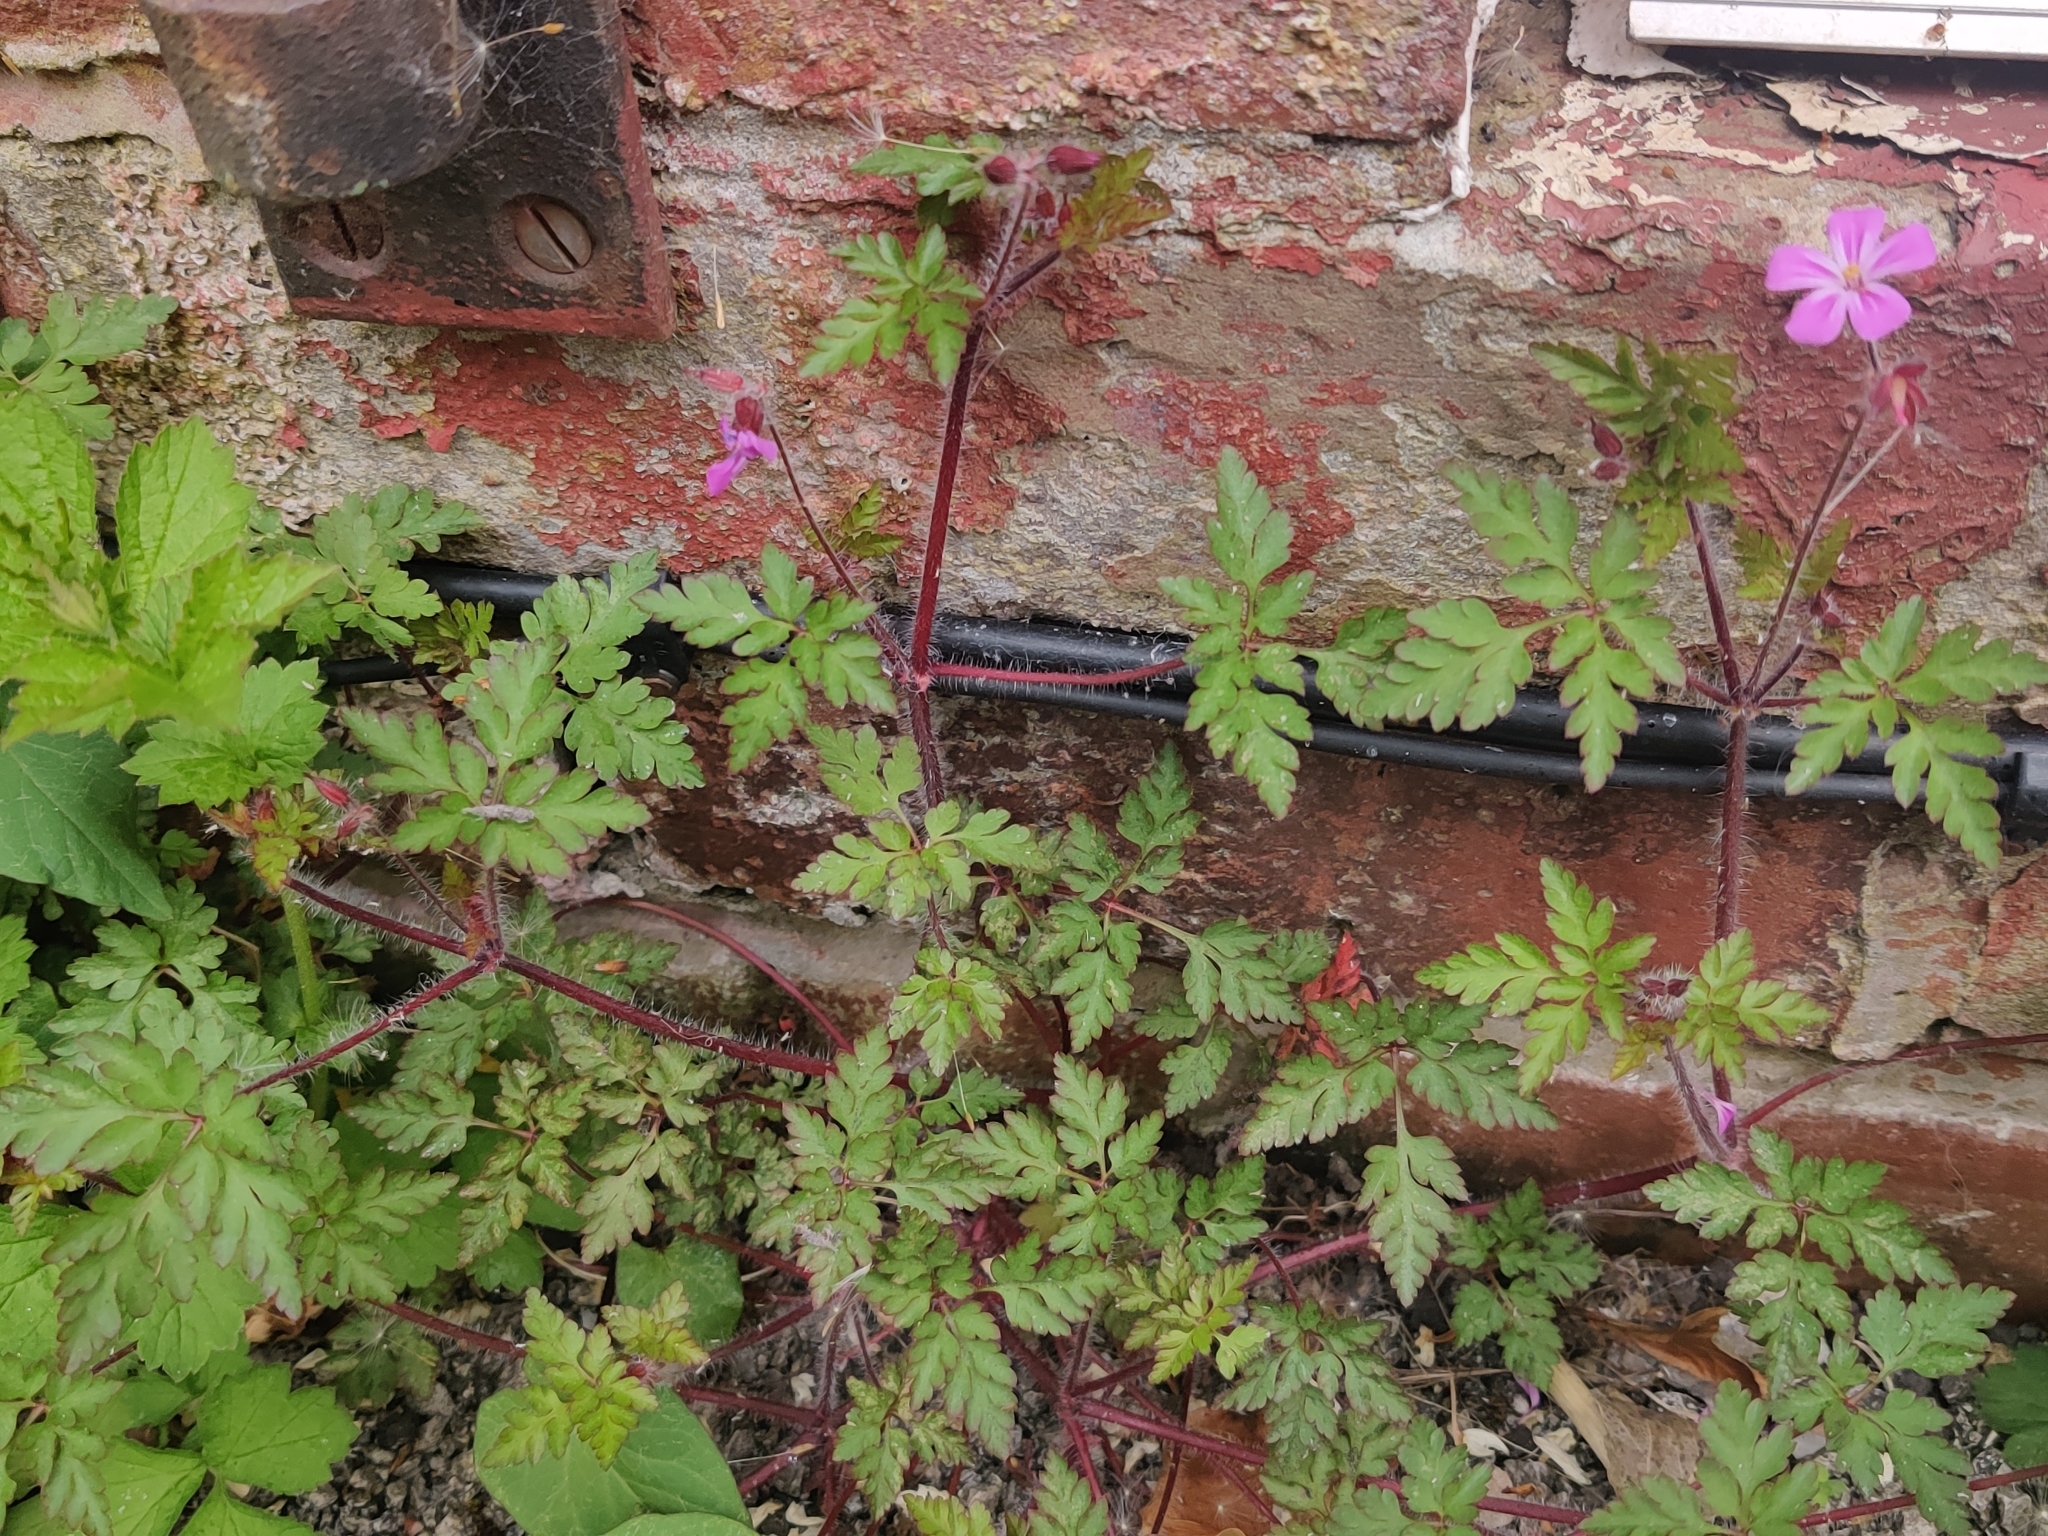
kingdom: Plantae
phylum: Tracheophyta
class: Magnoliopsida
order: Geraniales
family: Geraniaceae
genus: Geranium
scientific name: Geranium robertianum
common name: Herb-robert
